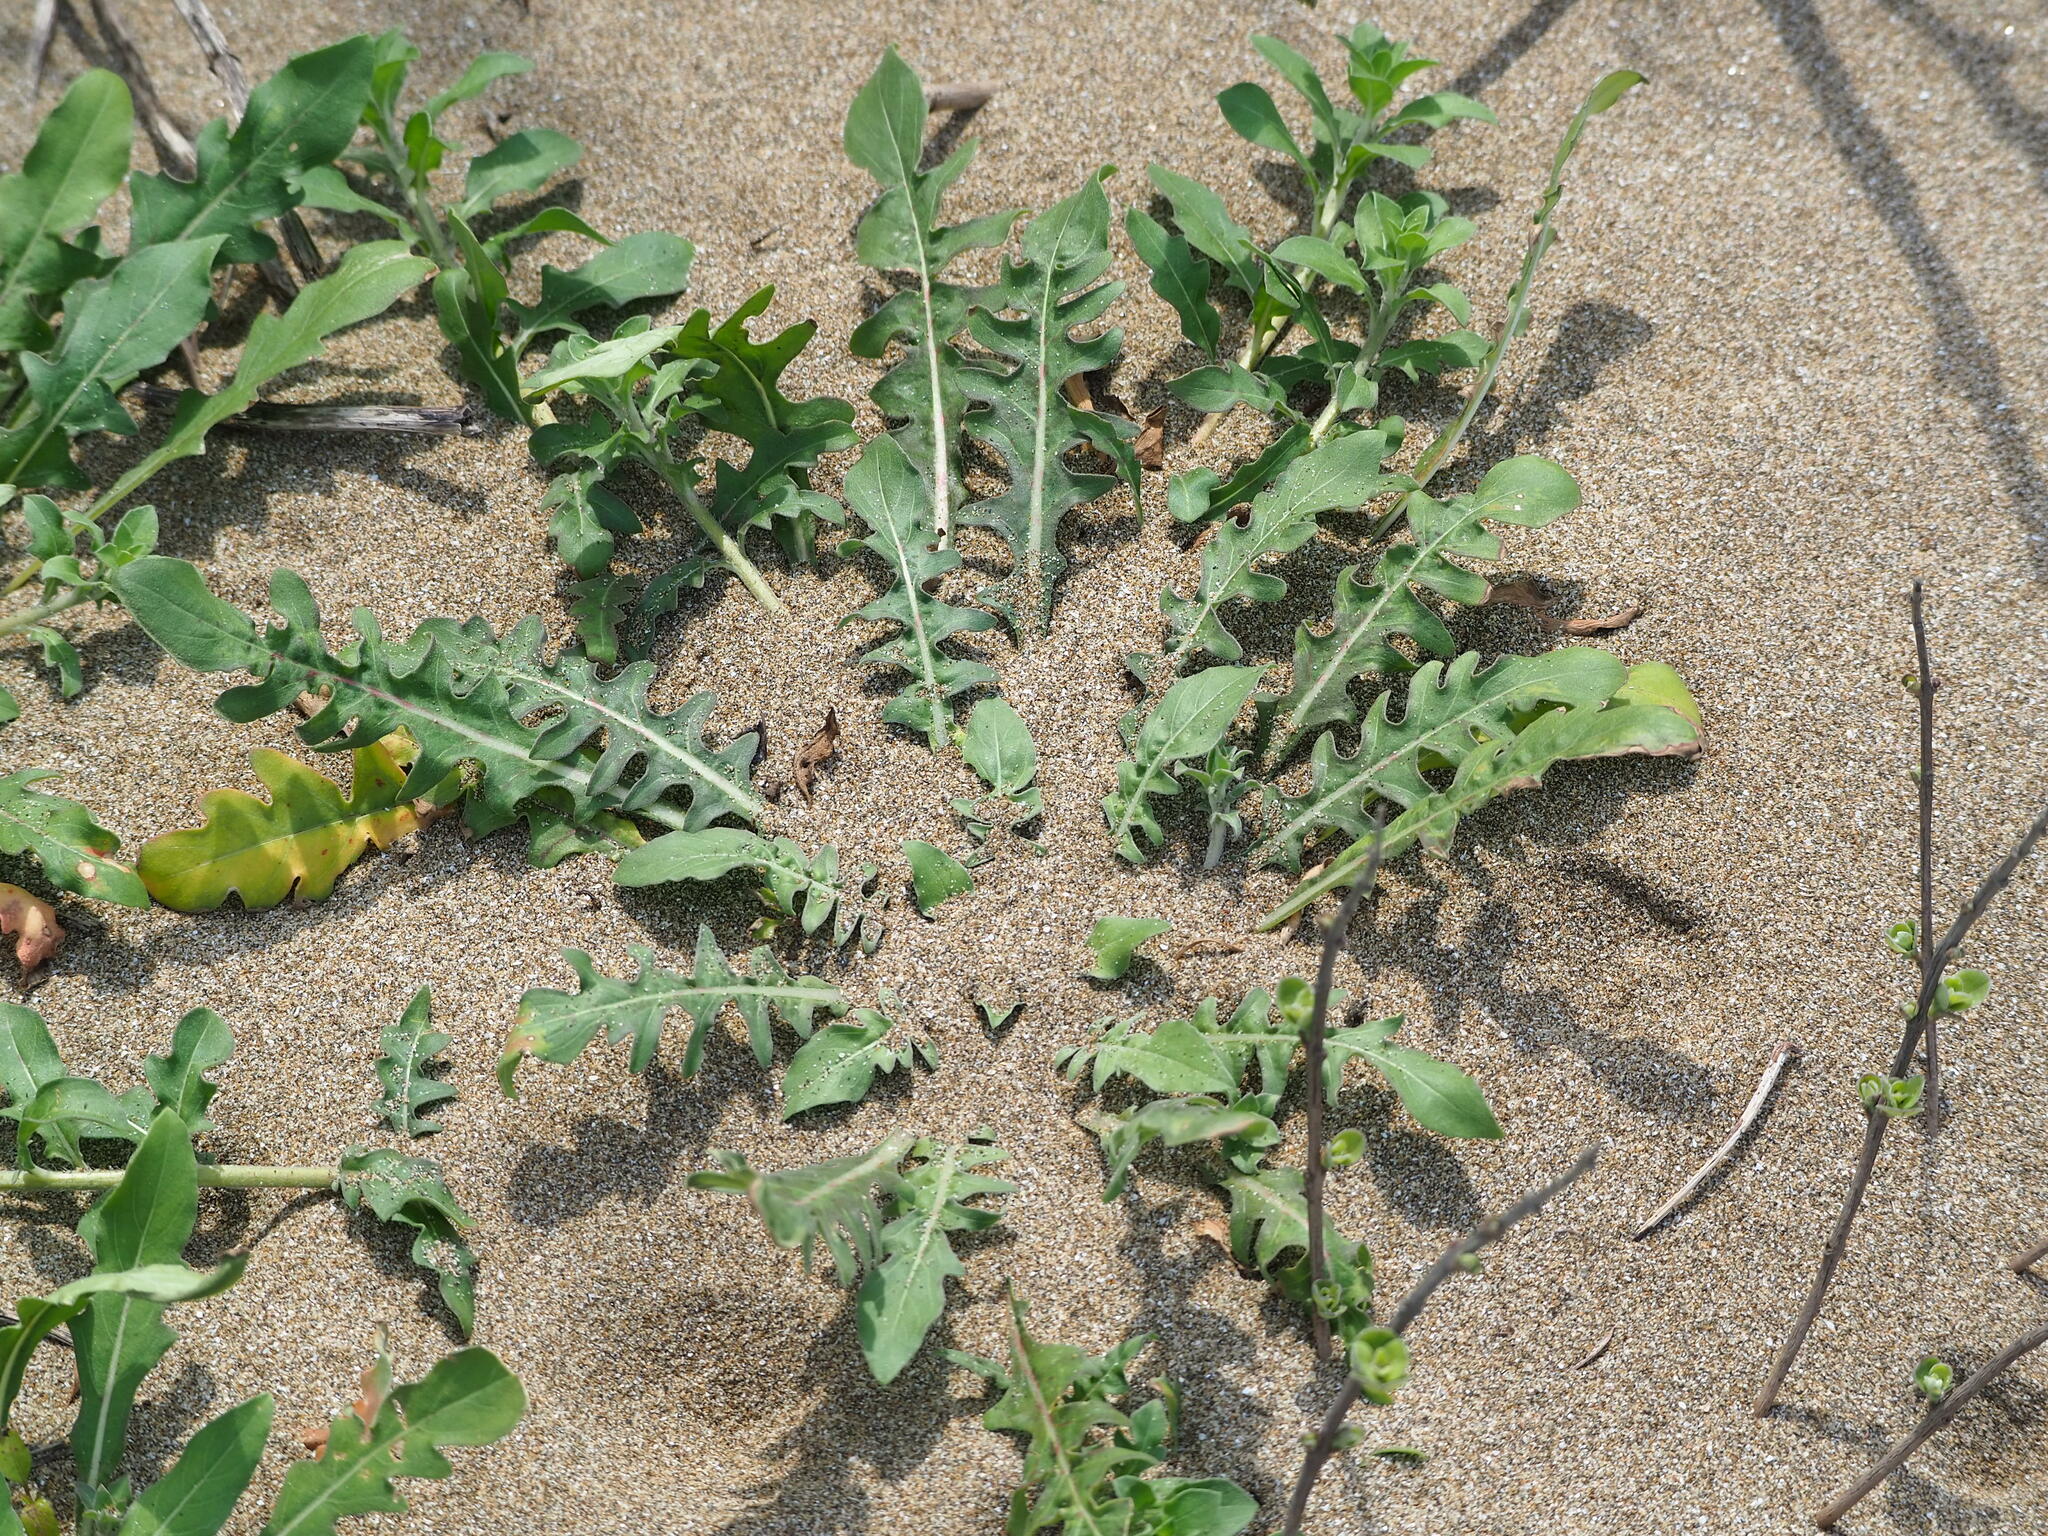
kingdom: Plantae
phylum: Tracheophyta
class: Magnoliopsida
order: Myrtales
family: Onagraceae
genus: Oenothera
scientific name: Oenothera laciniata
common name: Cut-leaved evening-primrose
